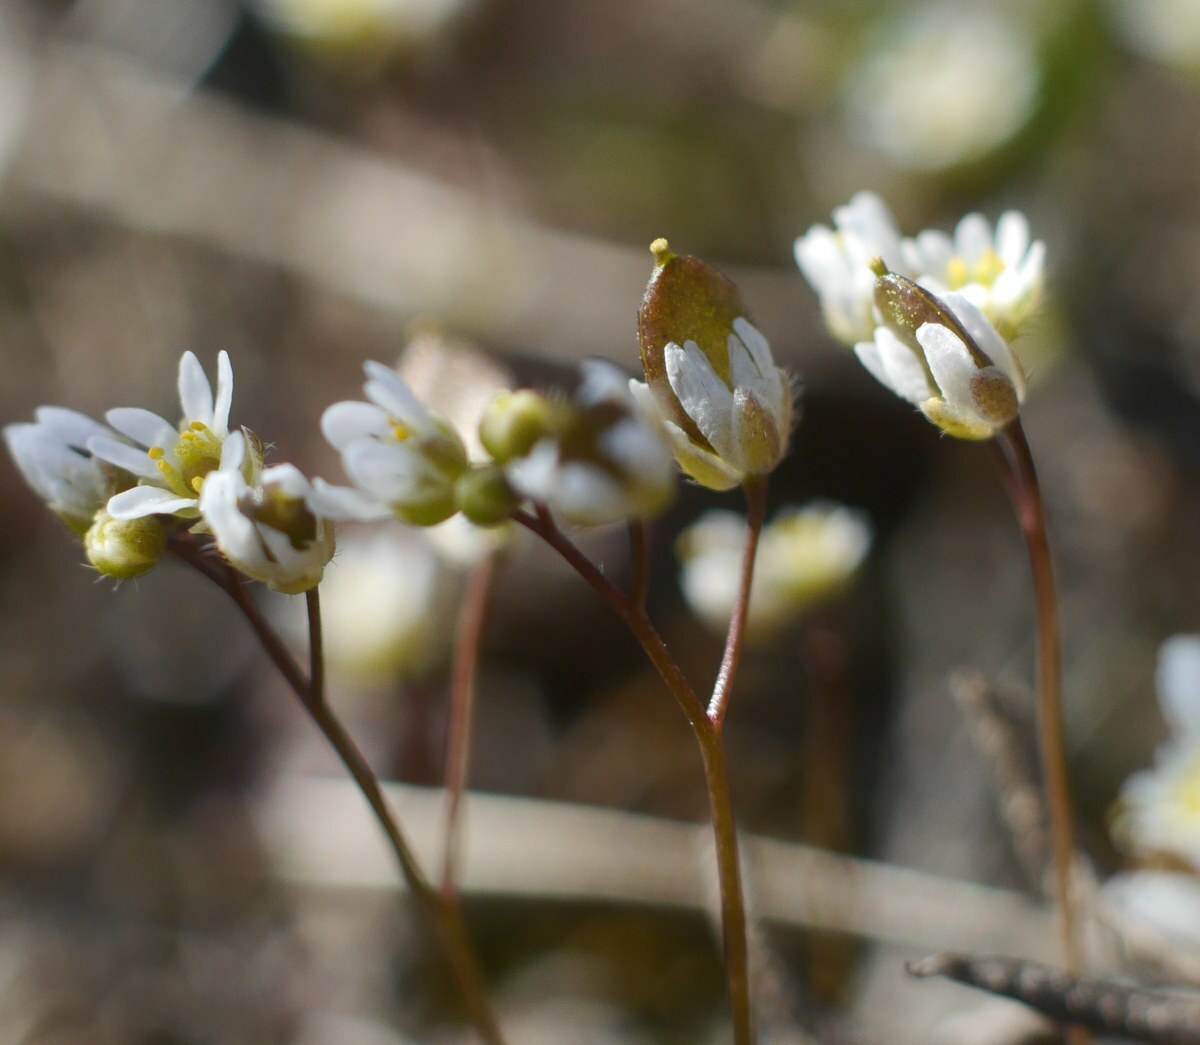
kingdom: Plantae
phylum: Tracheophyta
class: Magnoliopsida
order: Brassicales
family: Brassicaceae
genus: Draba
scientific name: Draba verna
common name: Spring draba
